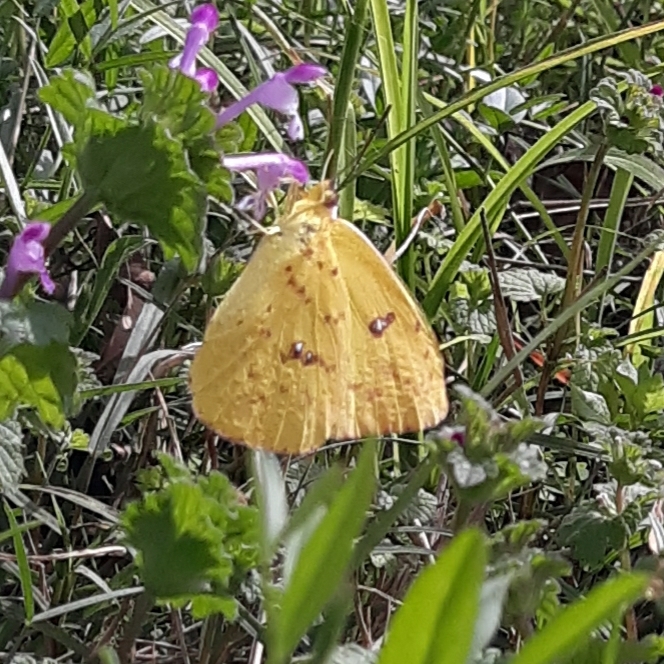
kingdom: Animalia
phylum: Arthropoda
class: Insecta
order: Lepidoptera
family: Pieridae
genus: Phoebis
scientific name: Phoebis sennae
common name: Cloudless sulphur
